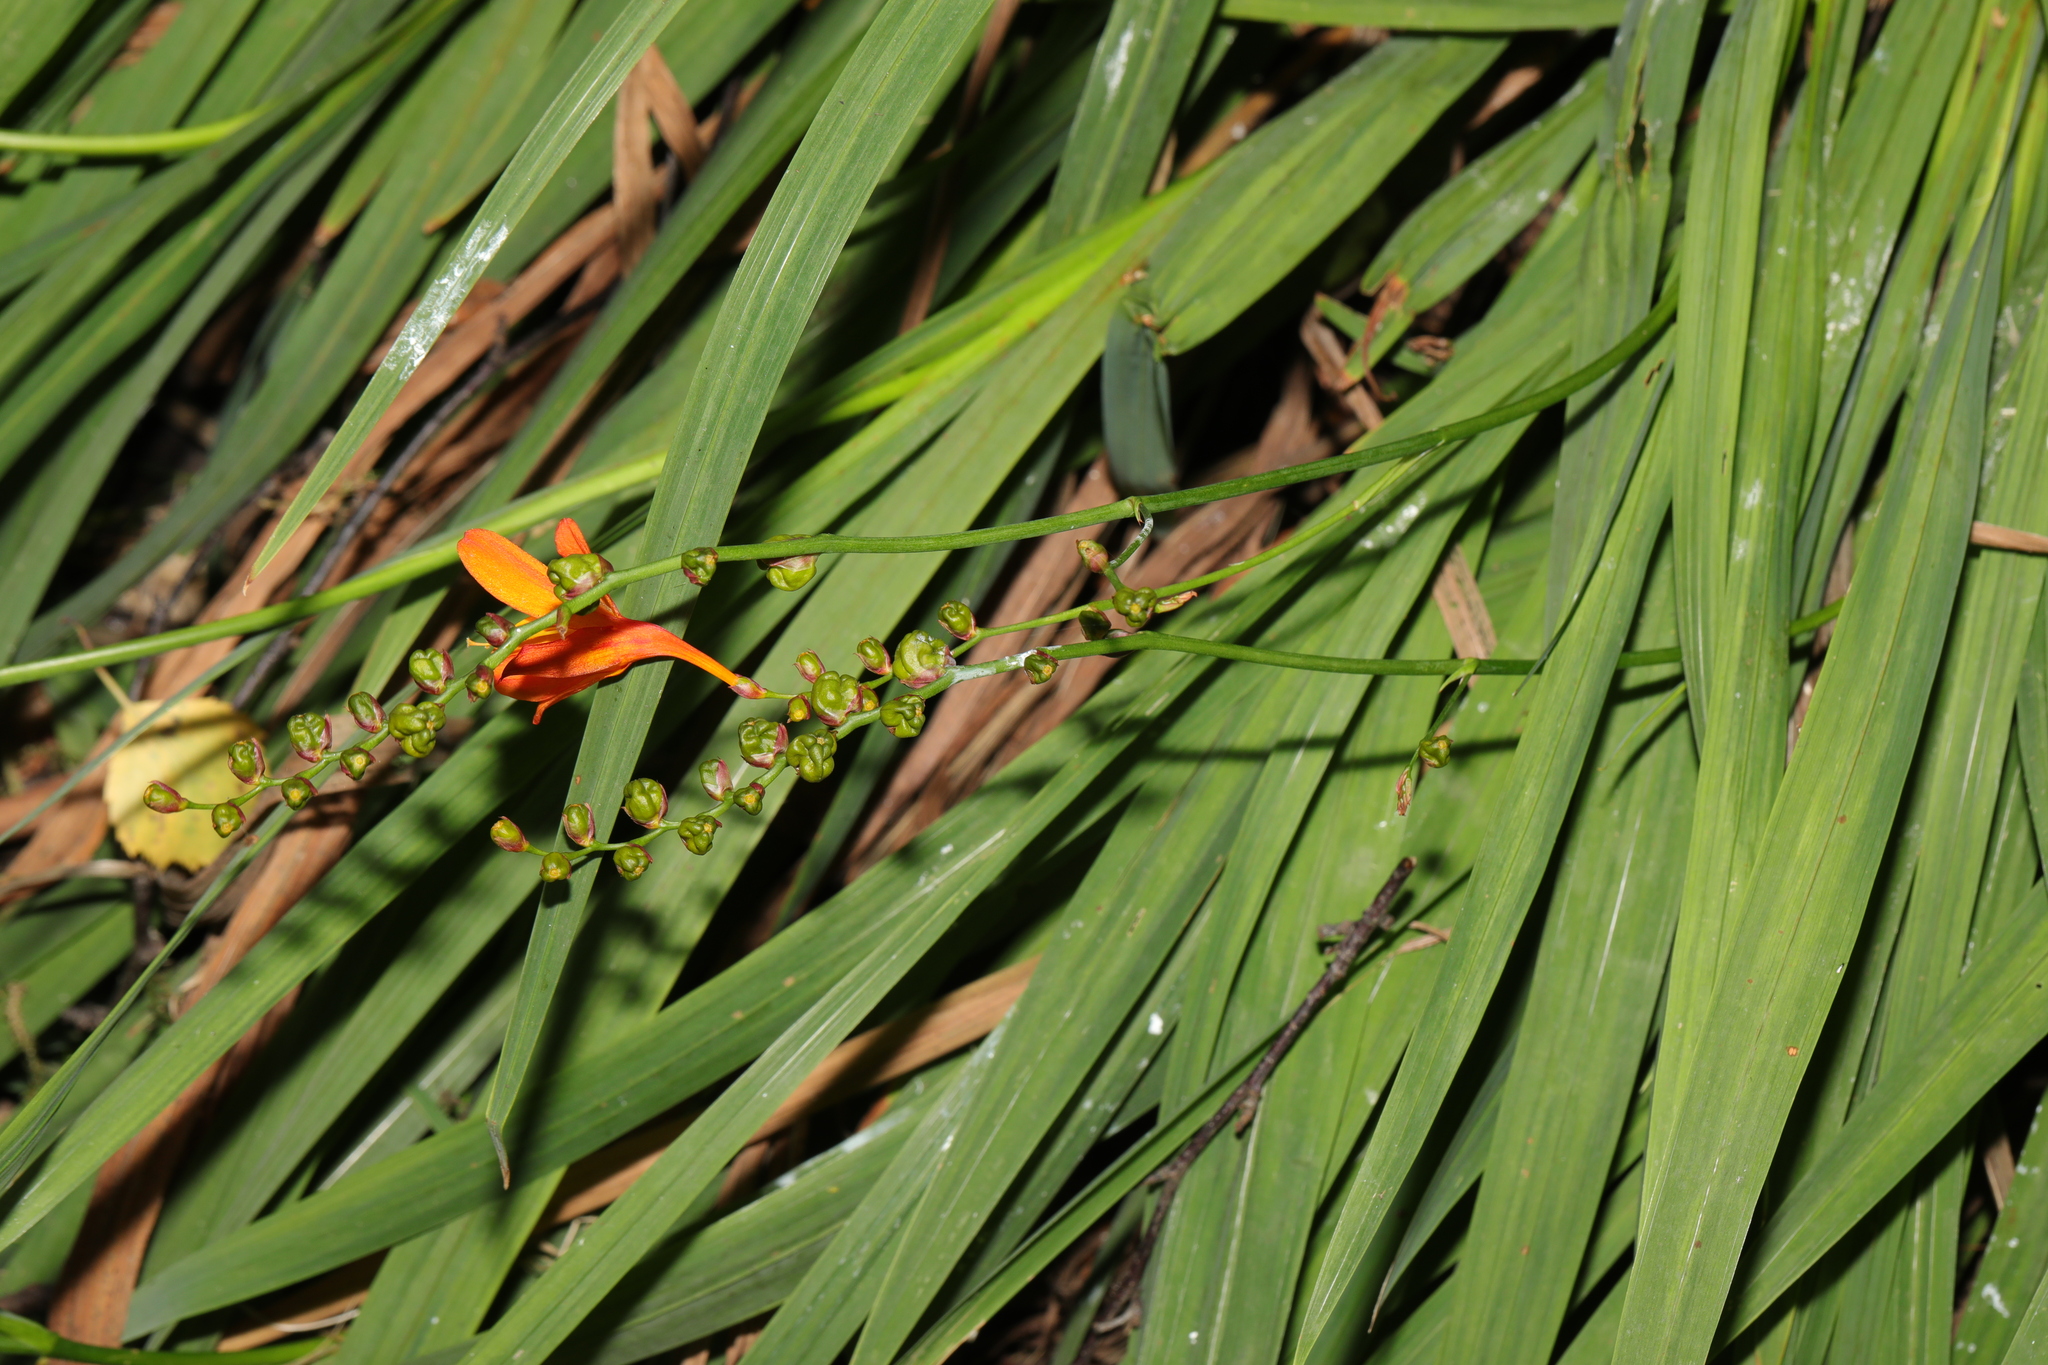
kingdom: Plantae
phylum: Tracheophyta
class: Liliopsida
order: Asparagales
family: Iridaceae
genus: Crocosmia
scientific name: Crocosmia crocosmiiflora
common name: Montbretia
